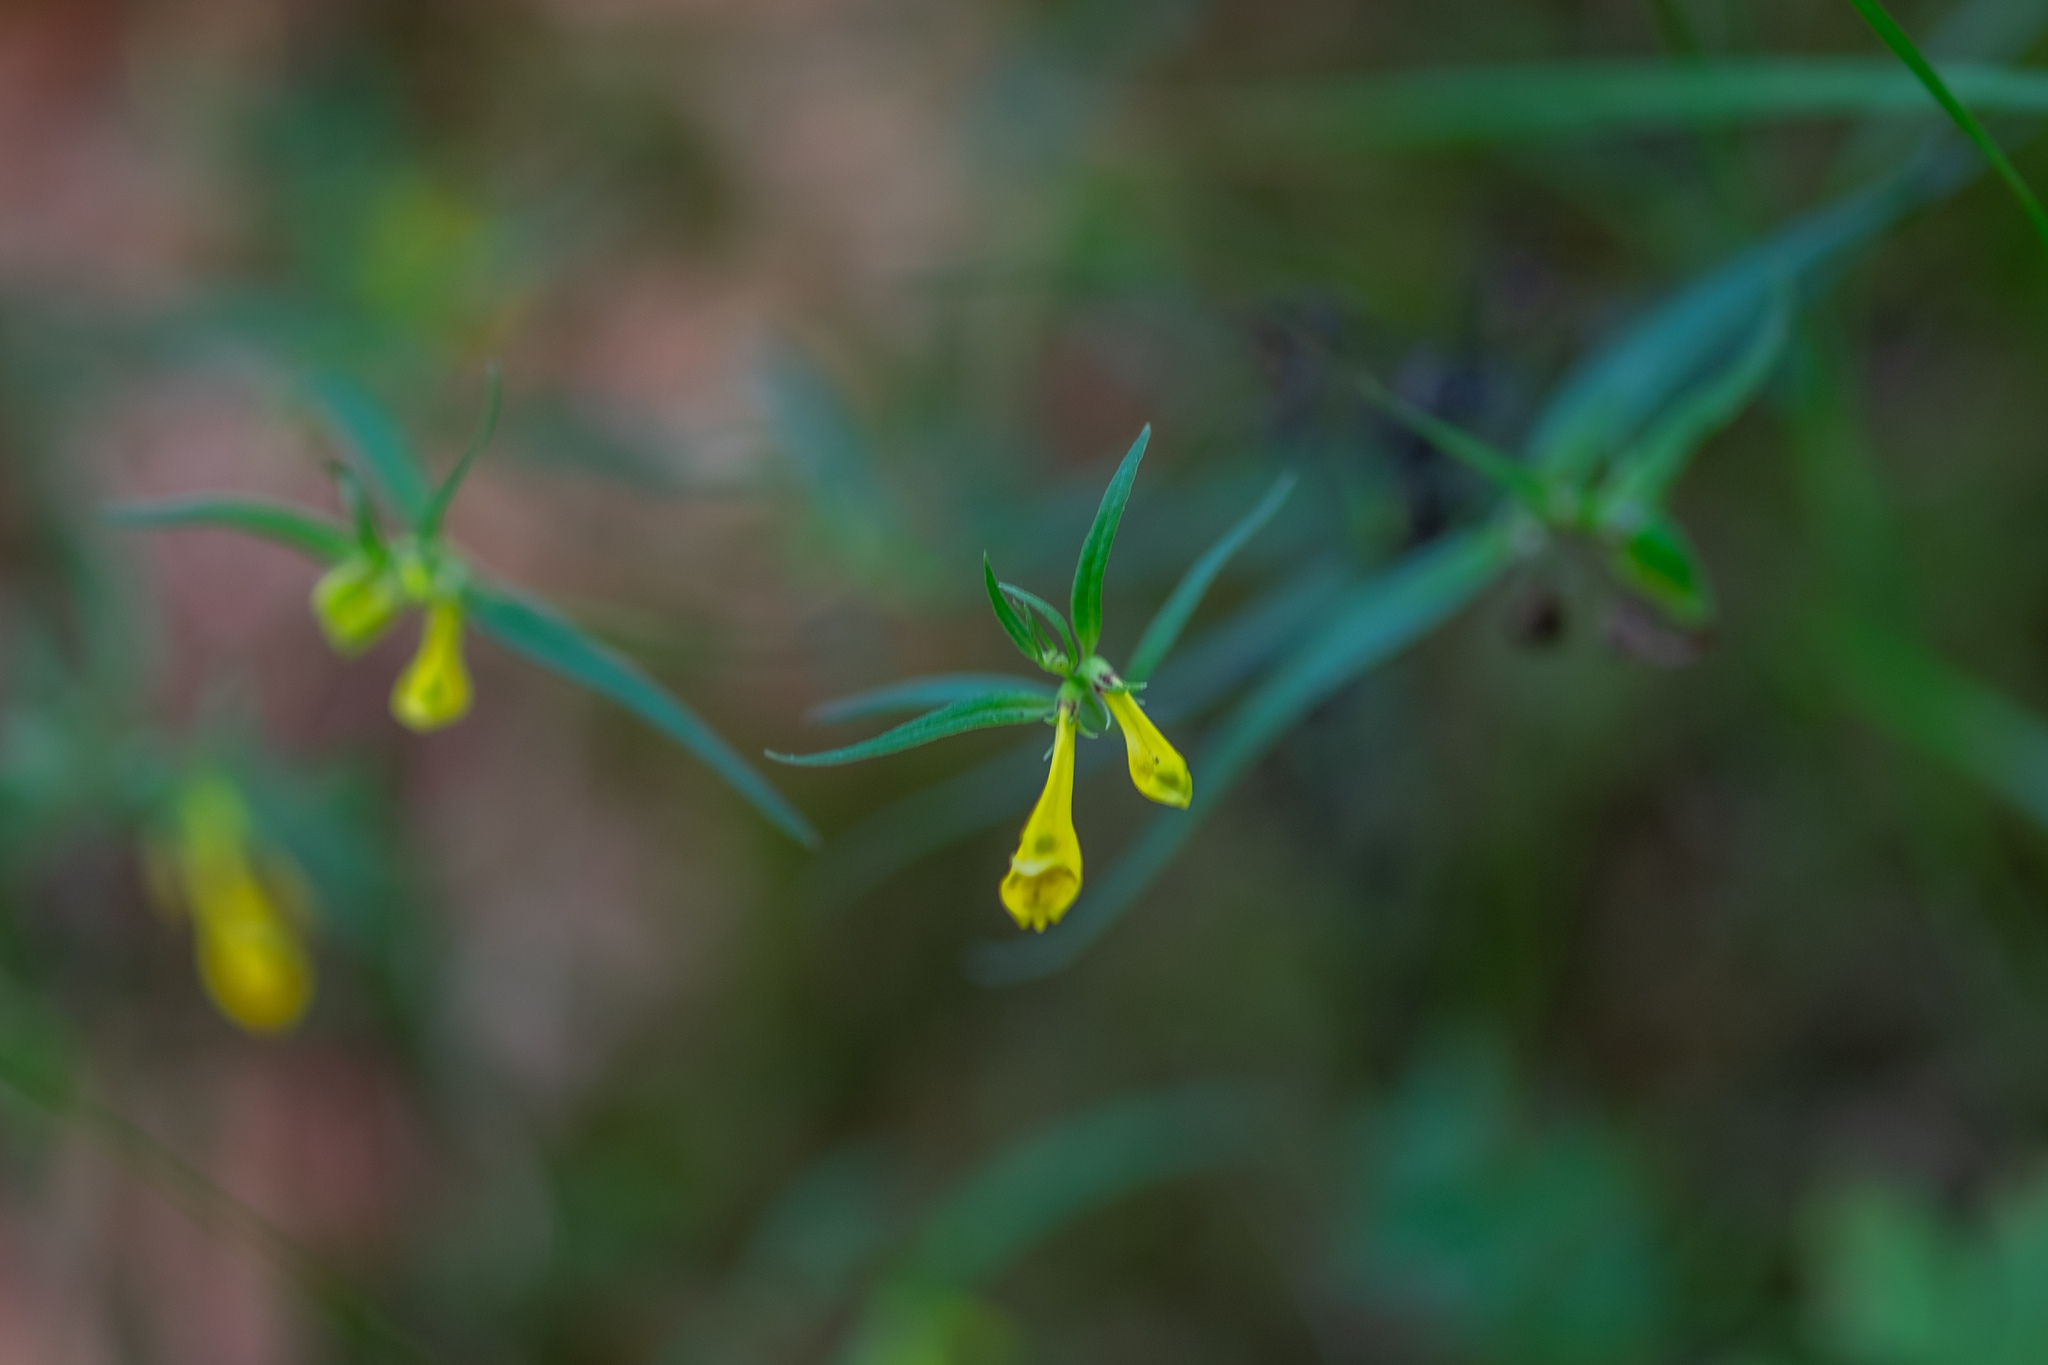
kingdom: Plantae
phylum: Tracheophyta
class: Magnoliopsida
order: Lamiales
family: Orobanchaceae
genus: Melampyrum
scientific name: Melampyrum pratense
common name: Common cow-wheat
